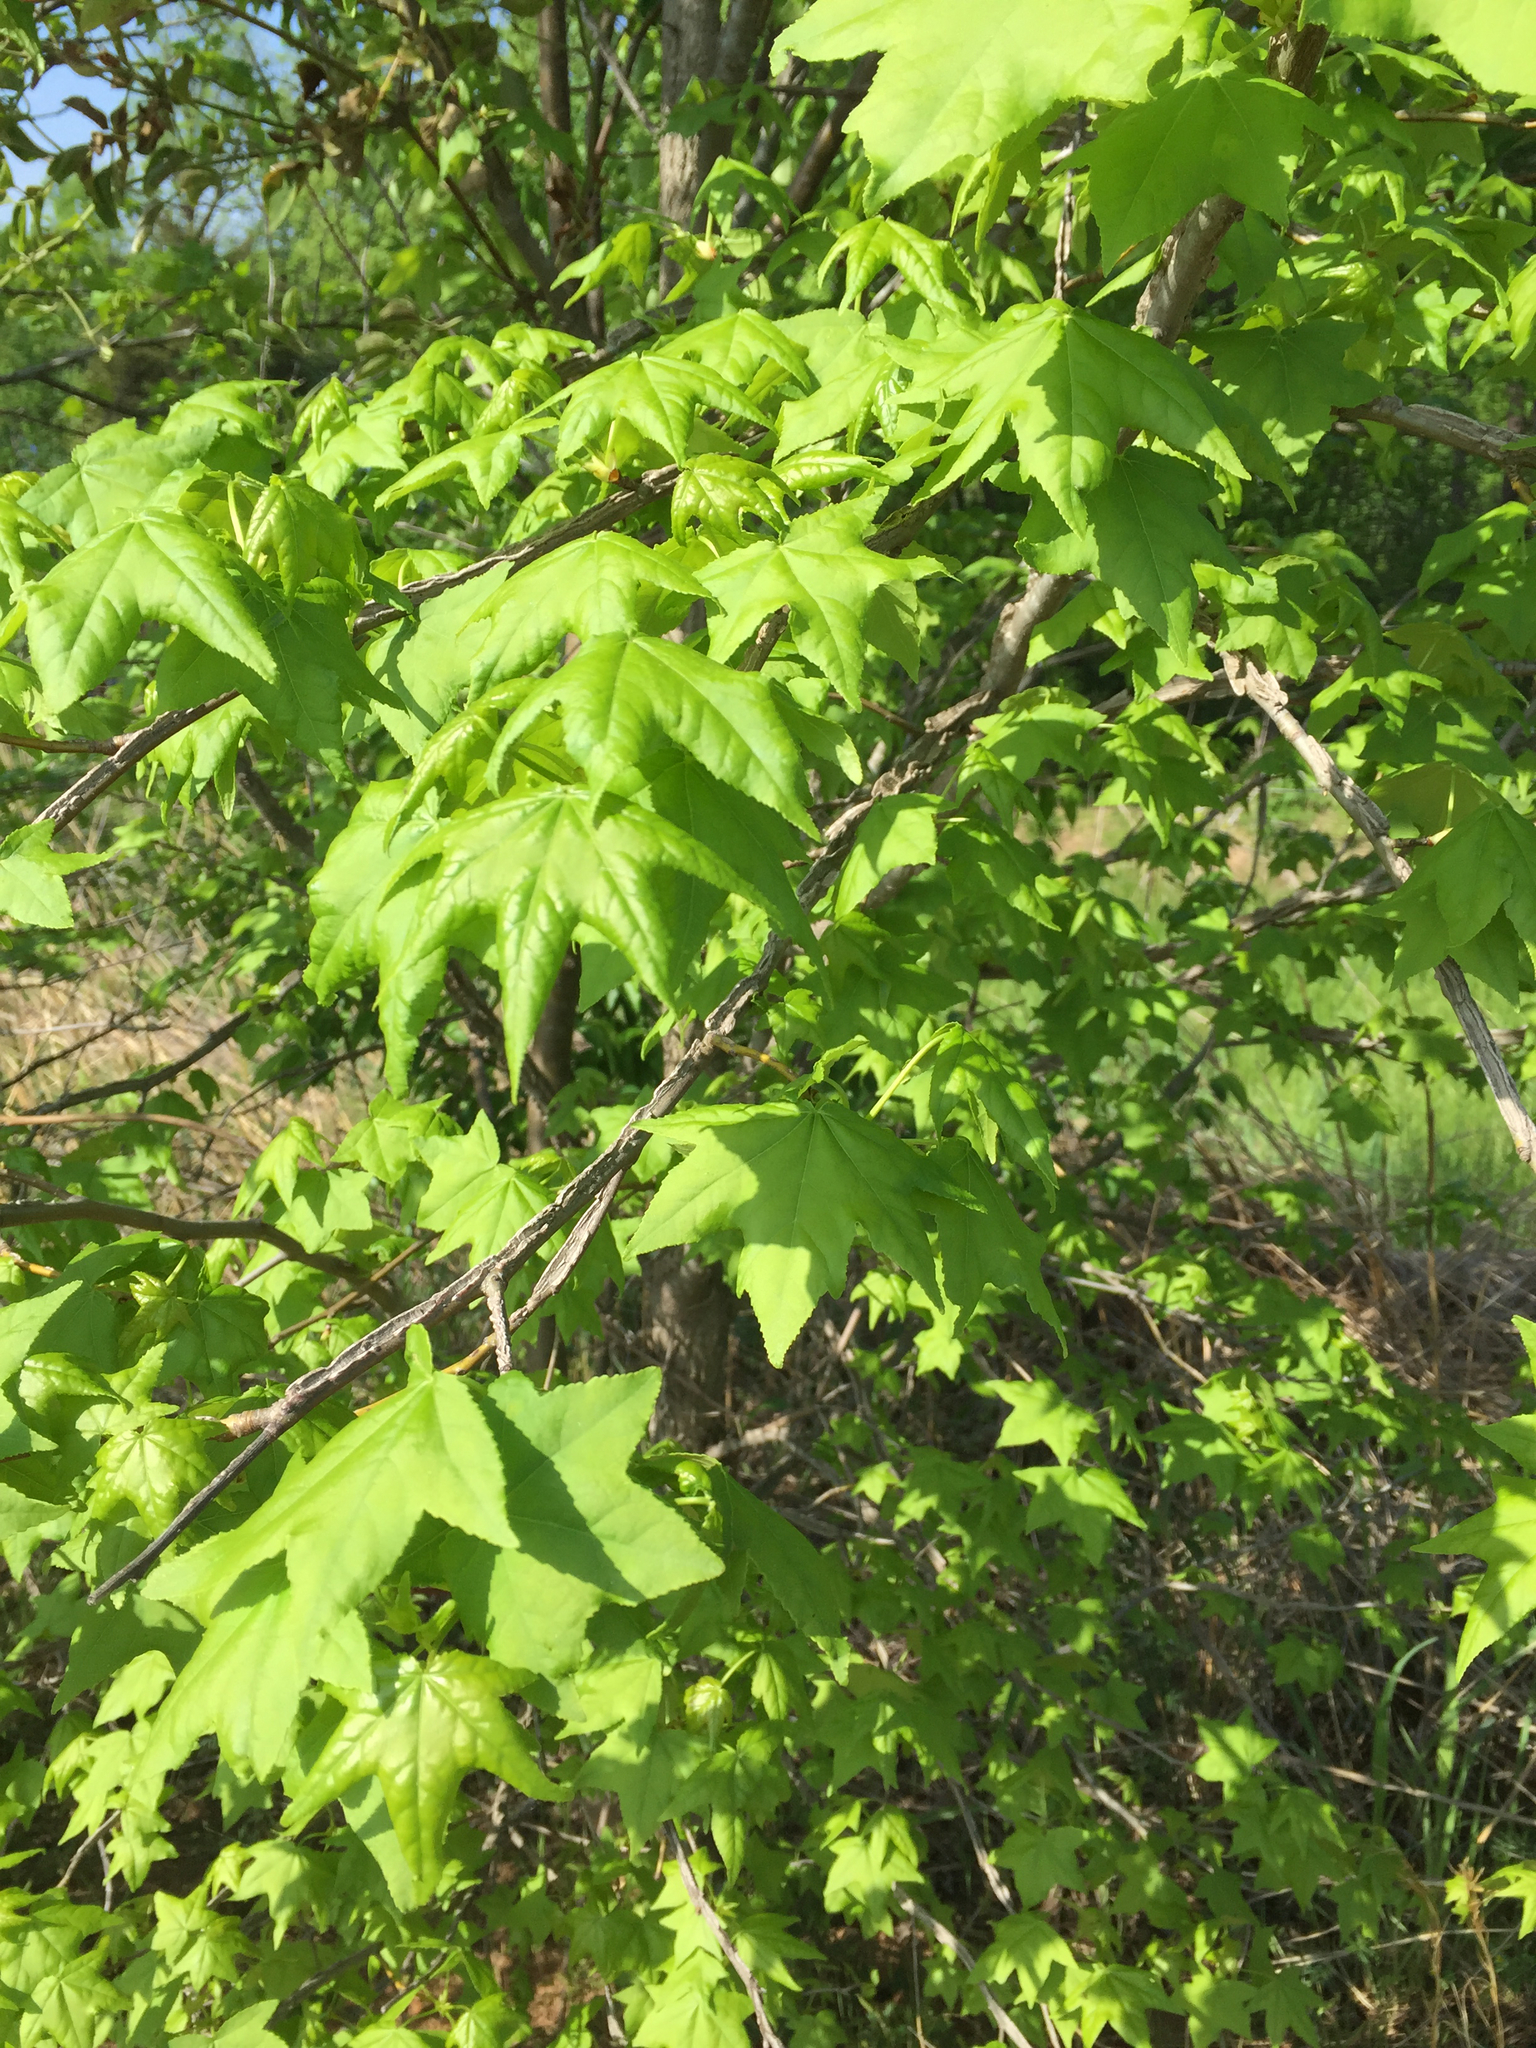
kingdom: Plantae
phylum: Tracheophyta
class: Magnoliopsida
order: Saxifragales
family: Altingiaceae
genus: Liquidambar
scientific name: Liquidambar styraciflua
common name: Sweet gum
